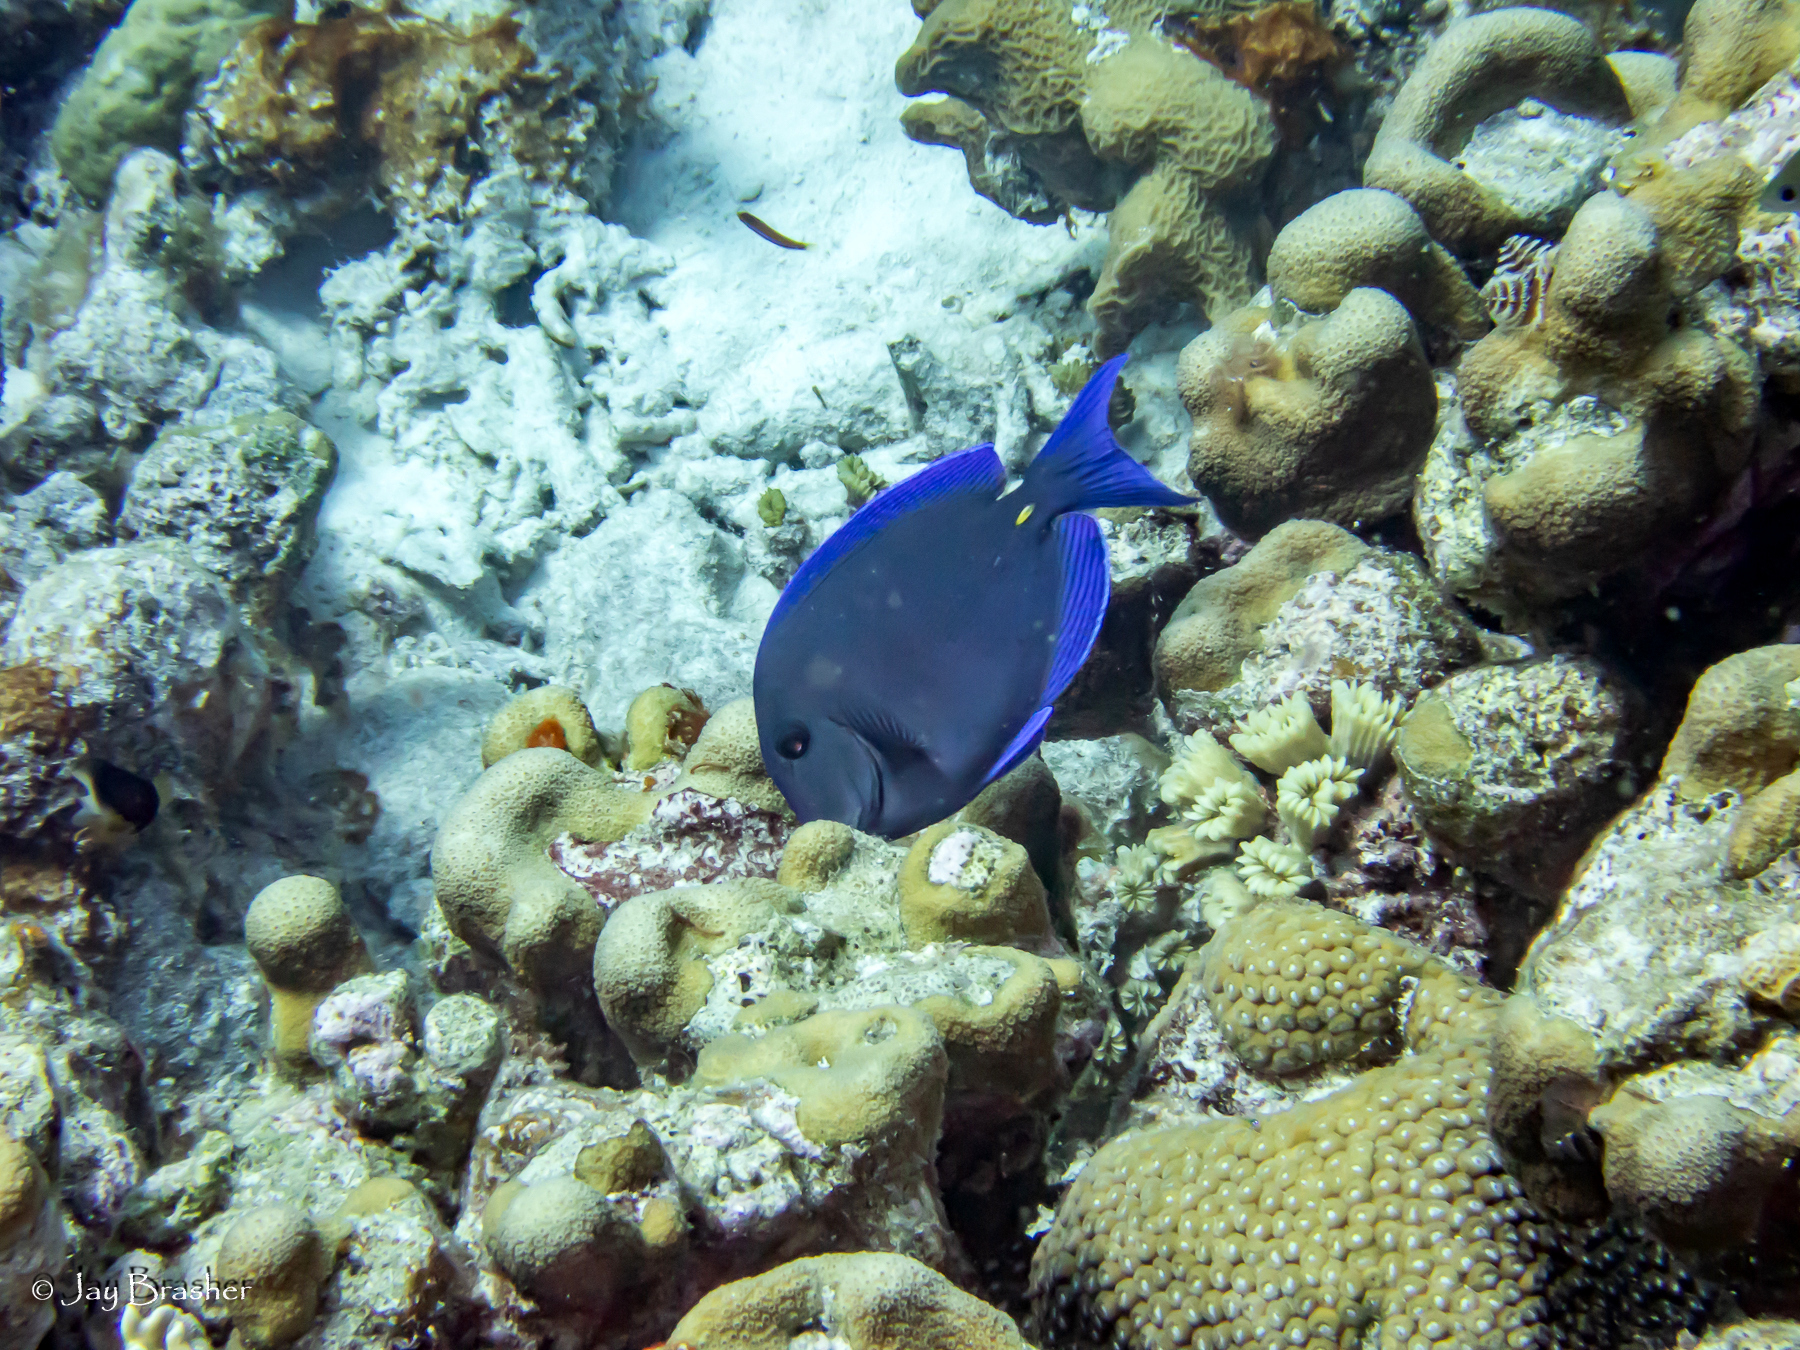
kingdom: Animalia
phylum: Chordata
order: Perciformes
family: Acanthuridae
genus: Acanthurus
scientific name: Acanthurus coeruleus
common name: Blue tang
